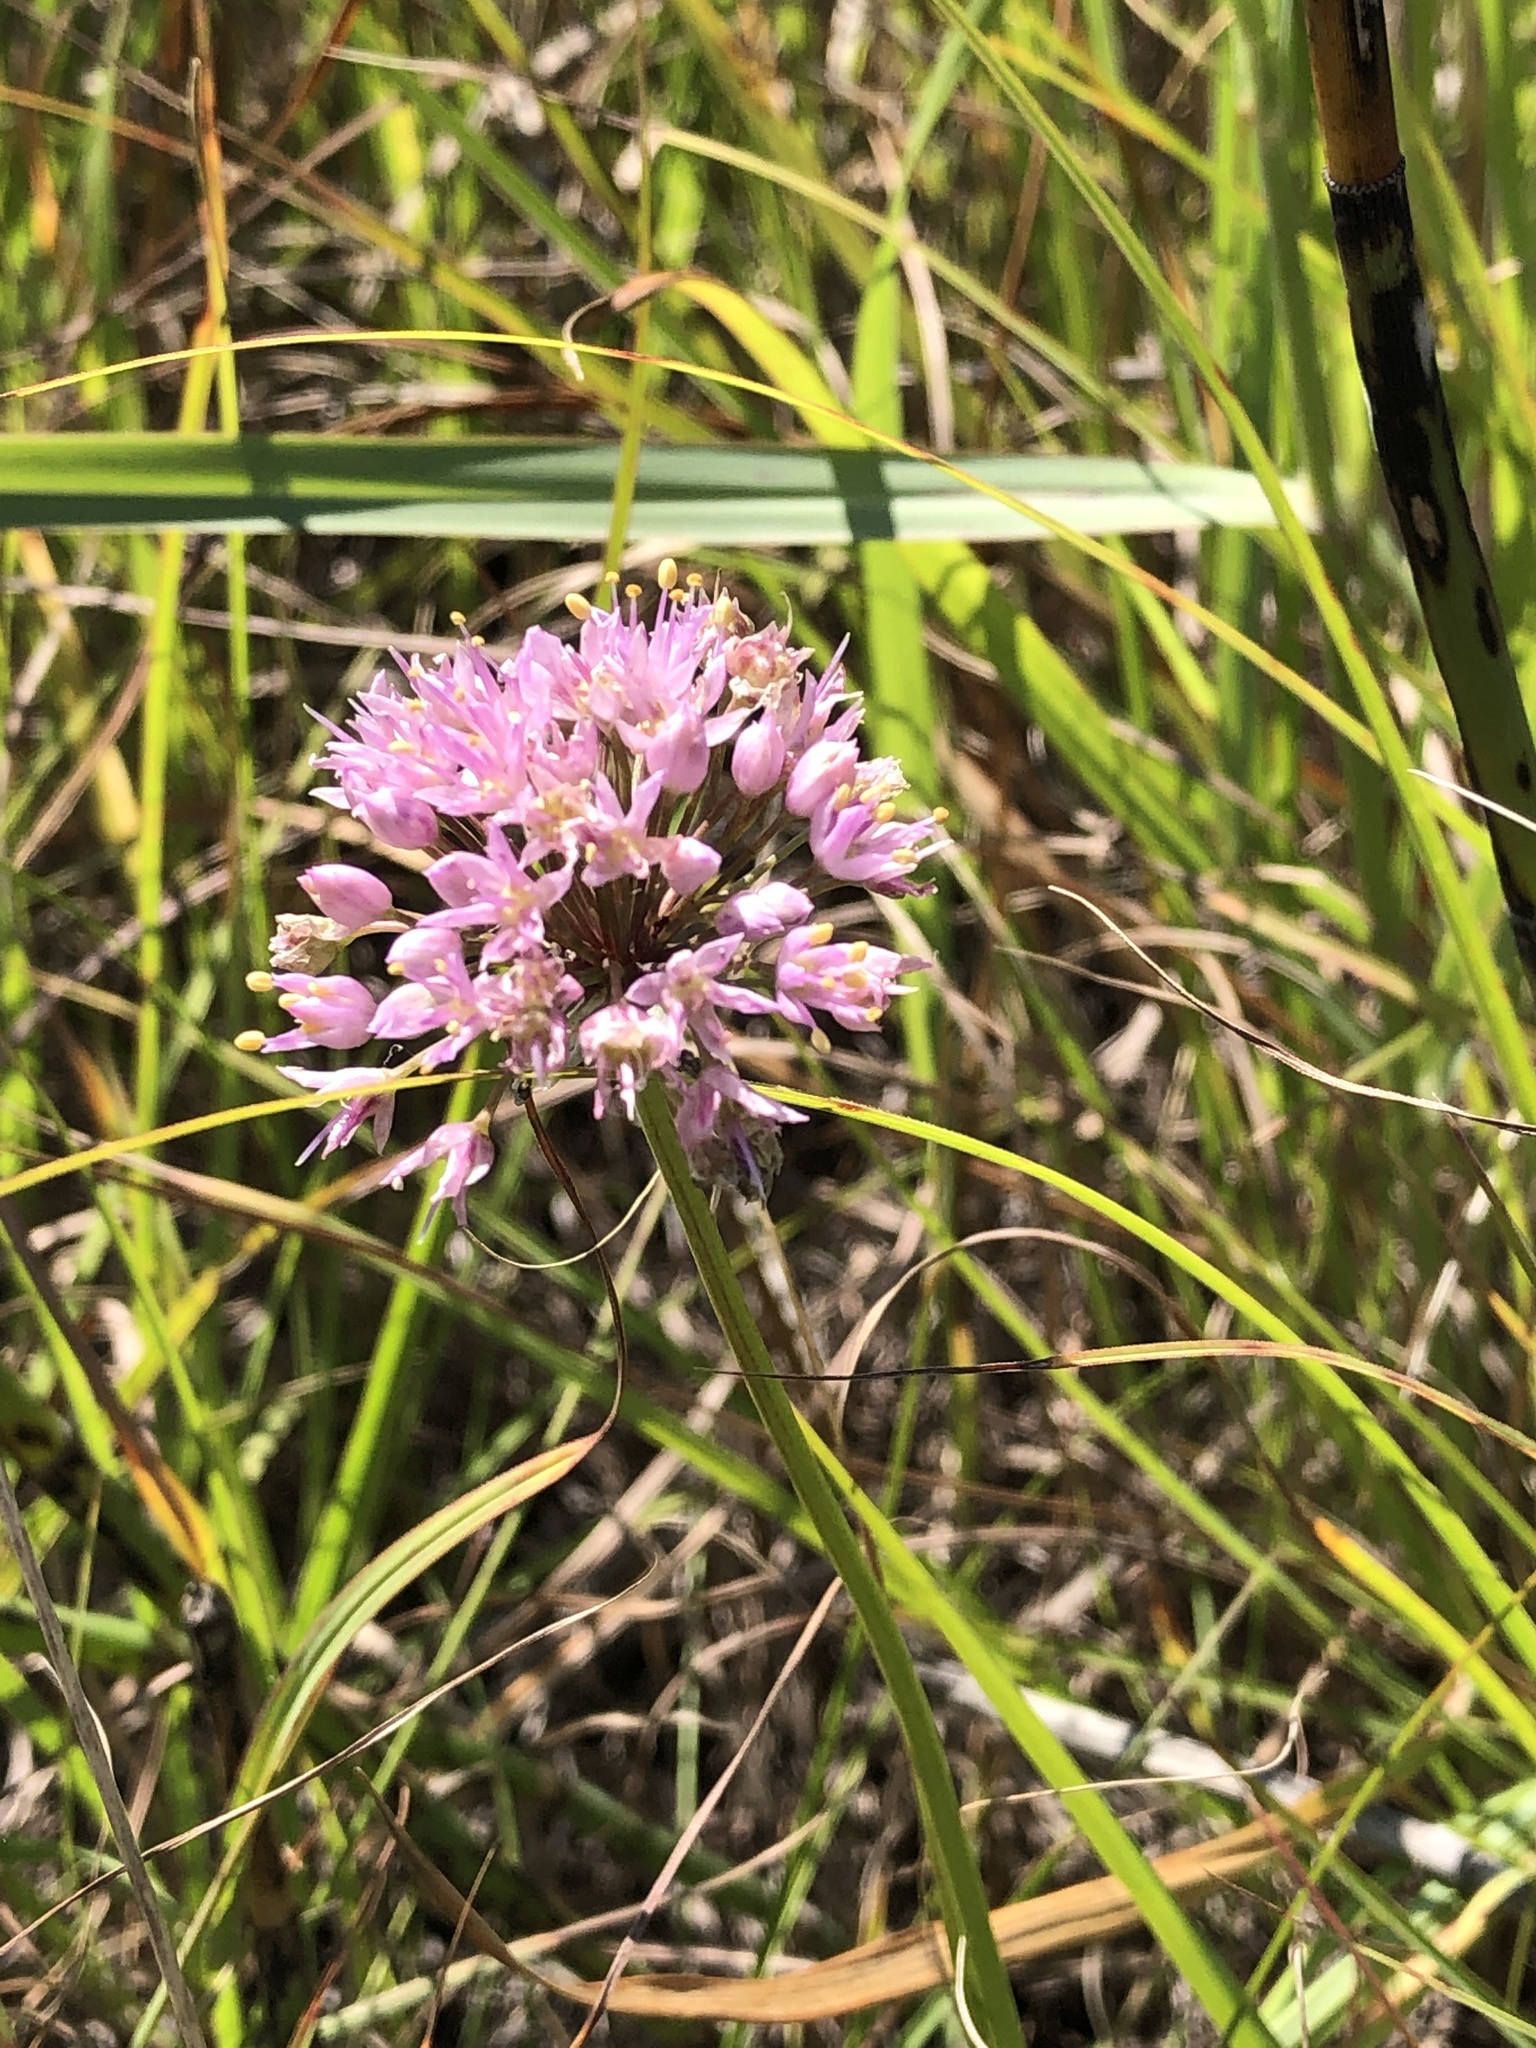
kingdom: Plantae
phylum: Tracheophyta
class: Liliopsida
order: Asparagales
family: Amaryllidaceae
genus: Allium
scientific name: Allium stellatum
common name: Autumn onion
